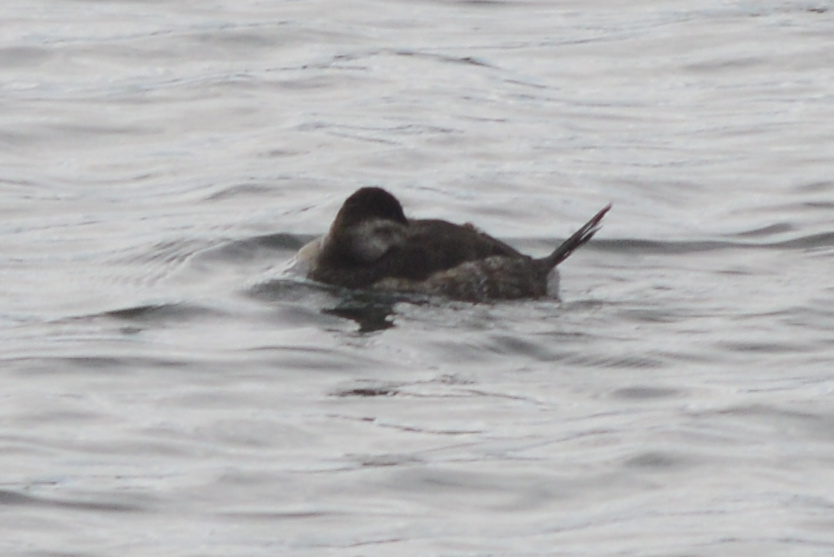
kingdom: Animalia
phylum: Chordata
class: Aves
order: Anseriformes
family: Anatidae
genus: Oxyura
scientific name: Oxyura jamaicensis
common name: Ruddy duck
